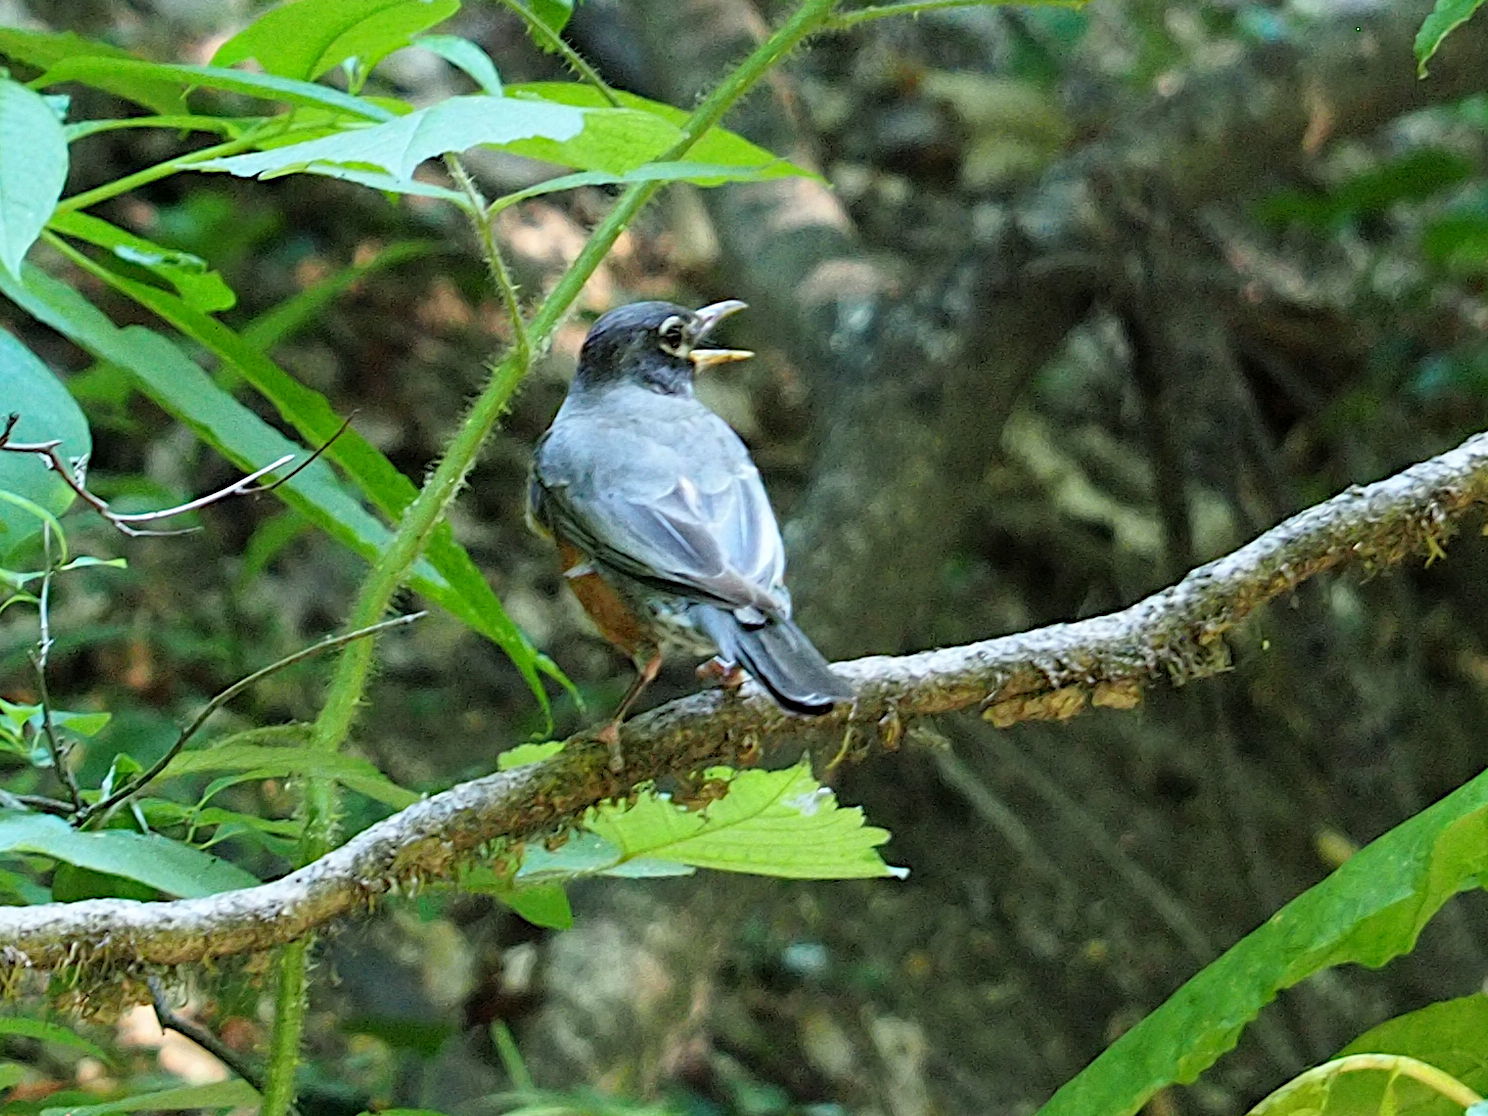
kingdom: Animalia
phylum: Chordata
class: Aves
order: Passeriformes
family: Turdidae
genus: Turdus
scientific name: Turdus migratorius
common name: American robin
